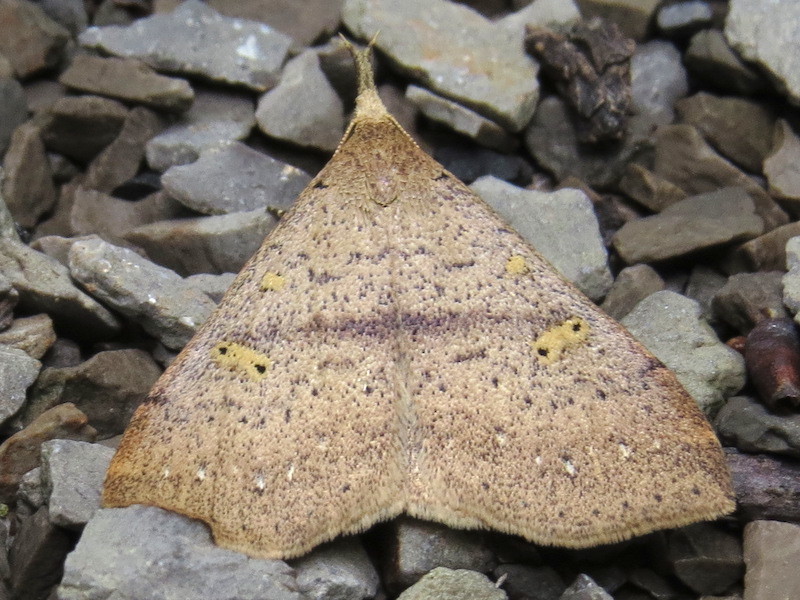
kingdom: Animalia
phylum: Arthropoda
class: Insecta
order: Lepidoptera
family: Erebidae
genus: Renia
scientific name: Renia salusalis
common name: Dotted renia moth
